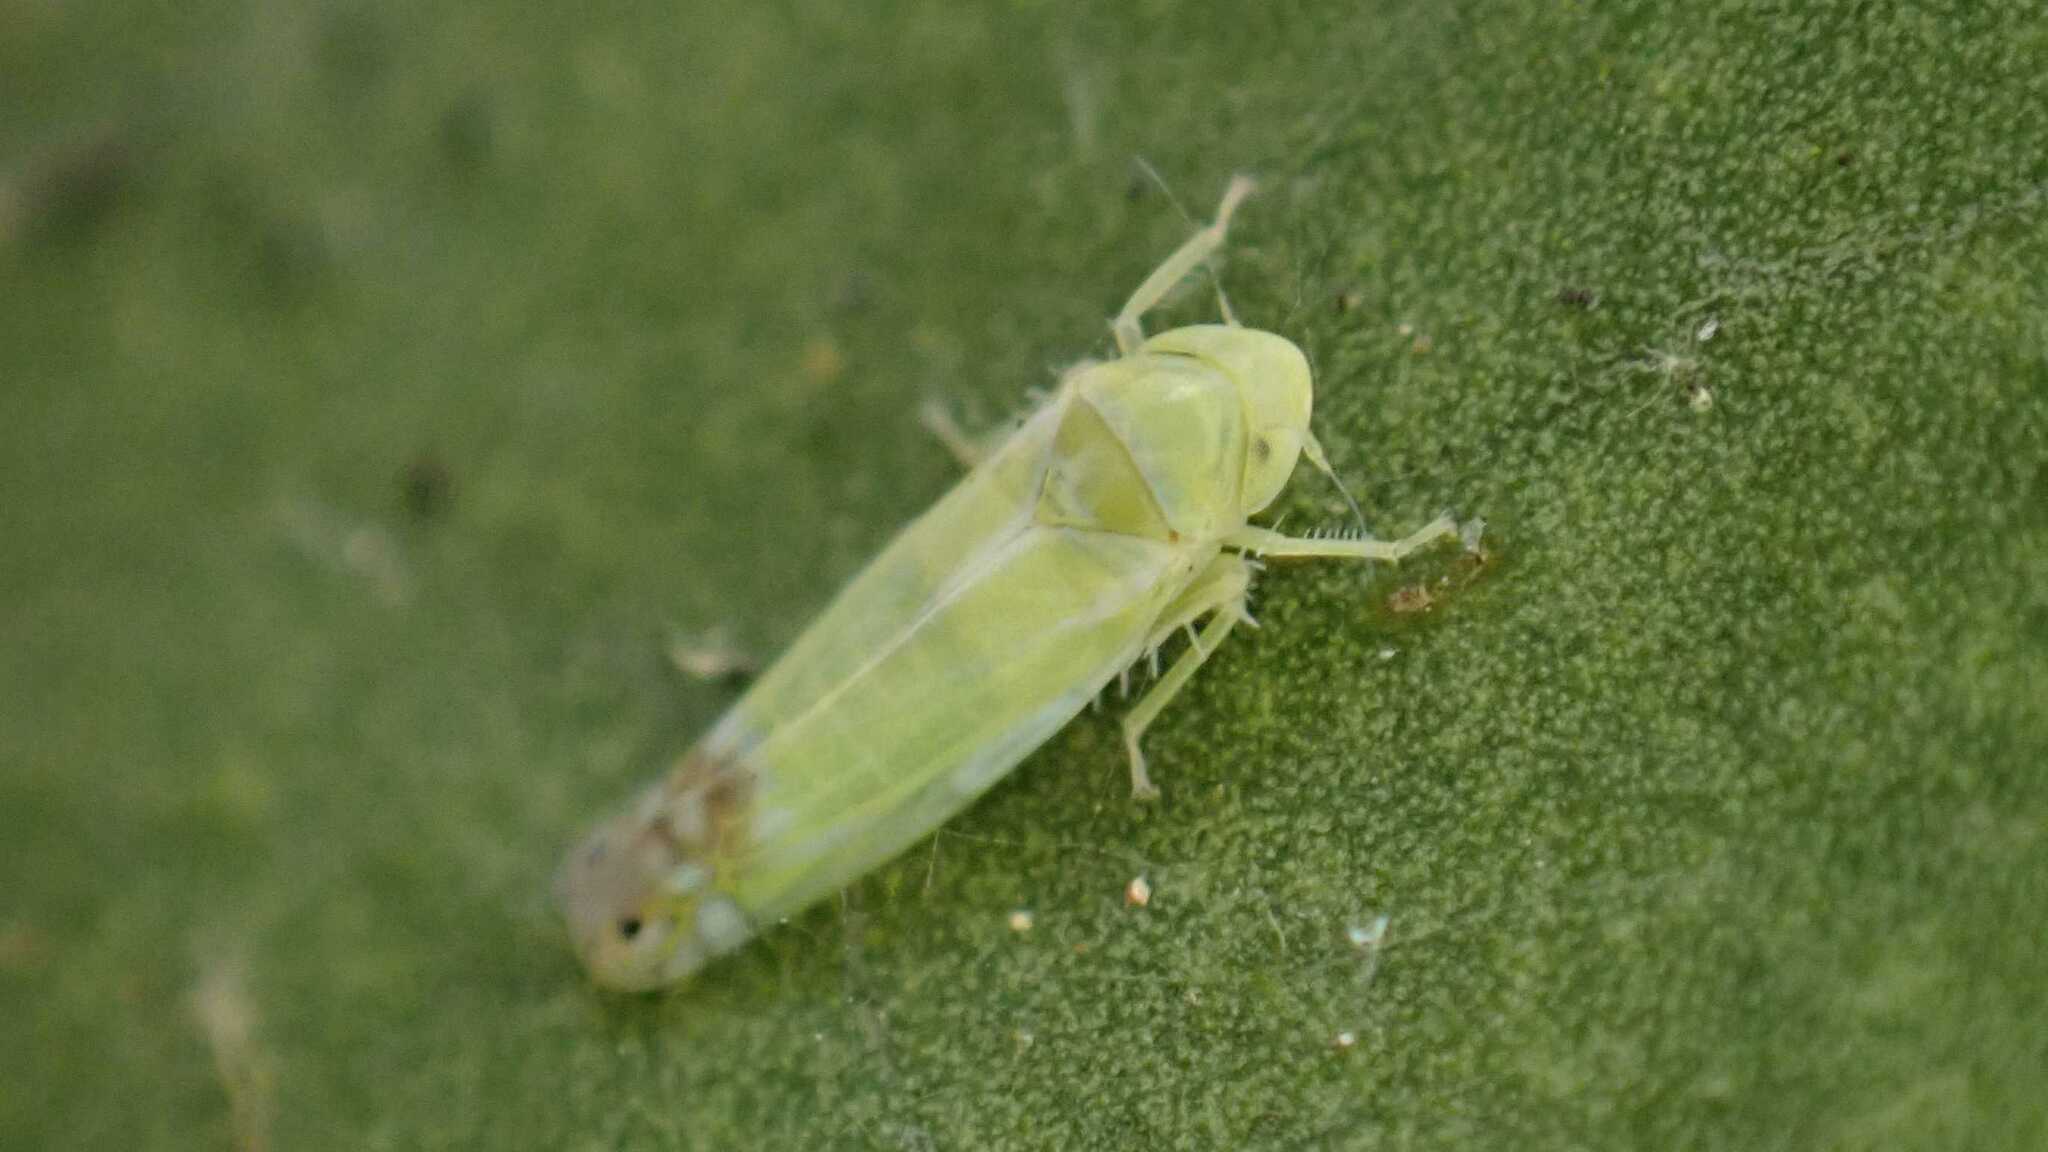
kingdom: Animalia
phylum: Arthropoda
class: Insecta
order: Hemiptera
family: Cicadellidae
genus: Zyginella
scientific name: Zyginella pulchra
